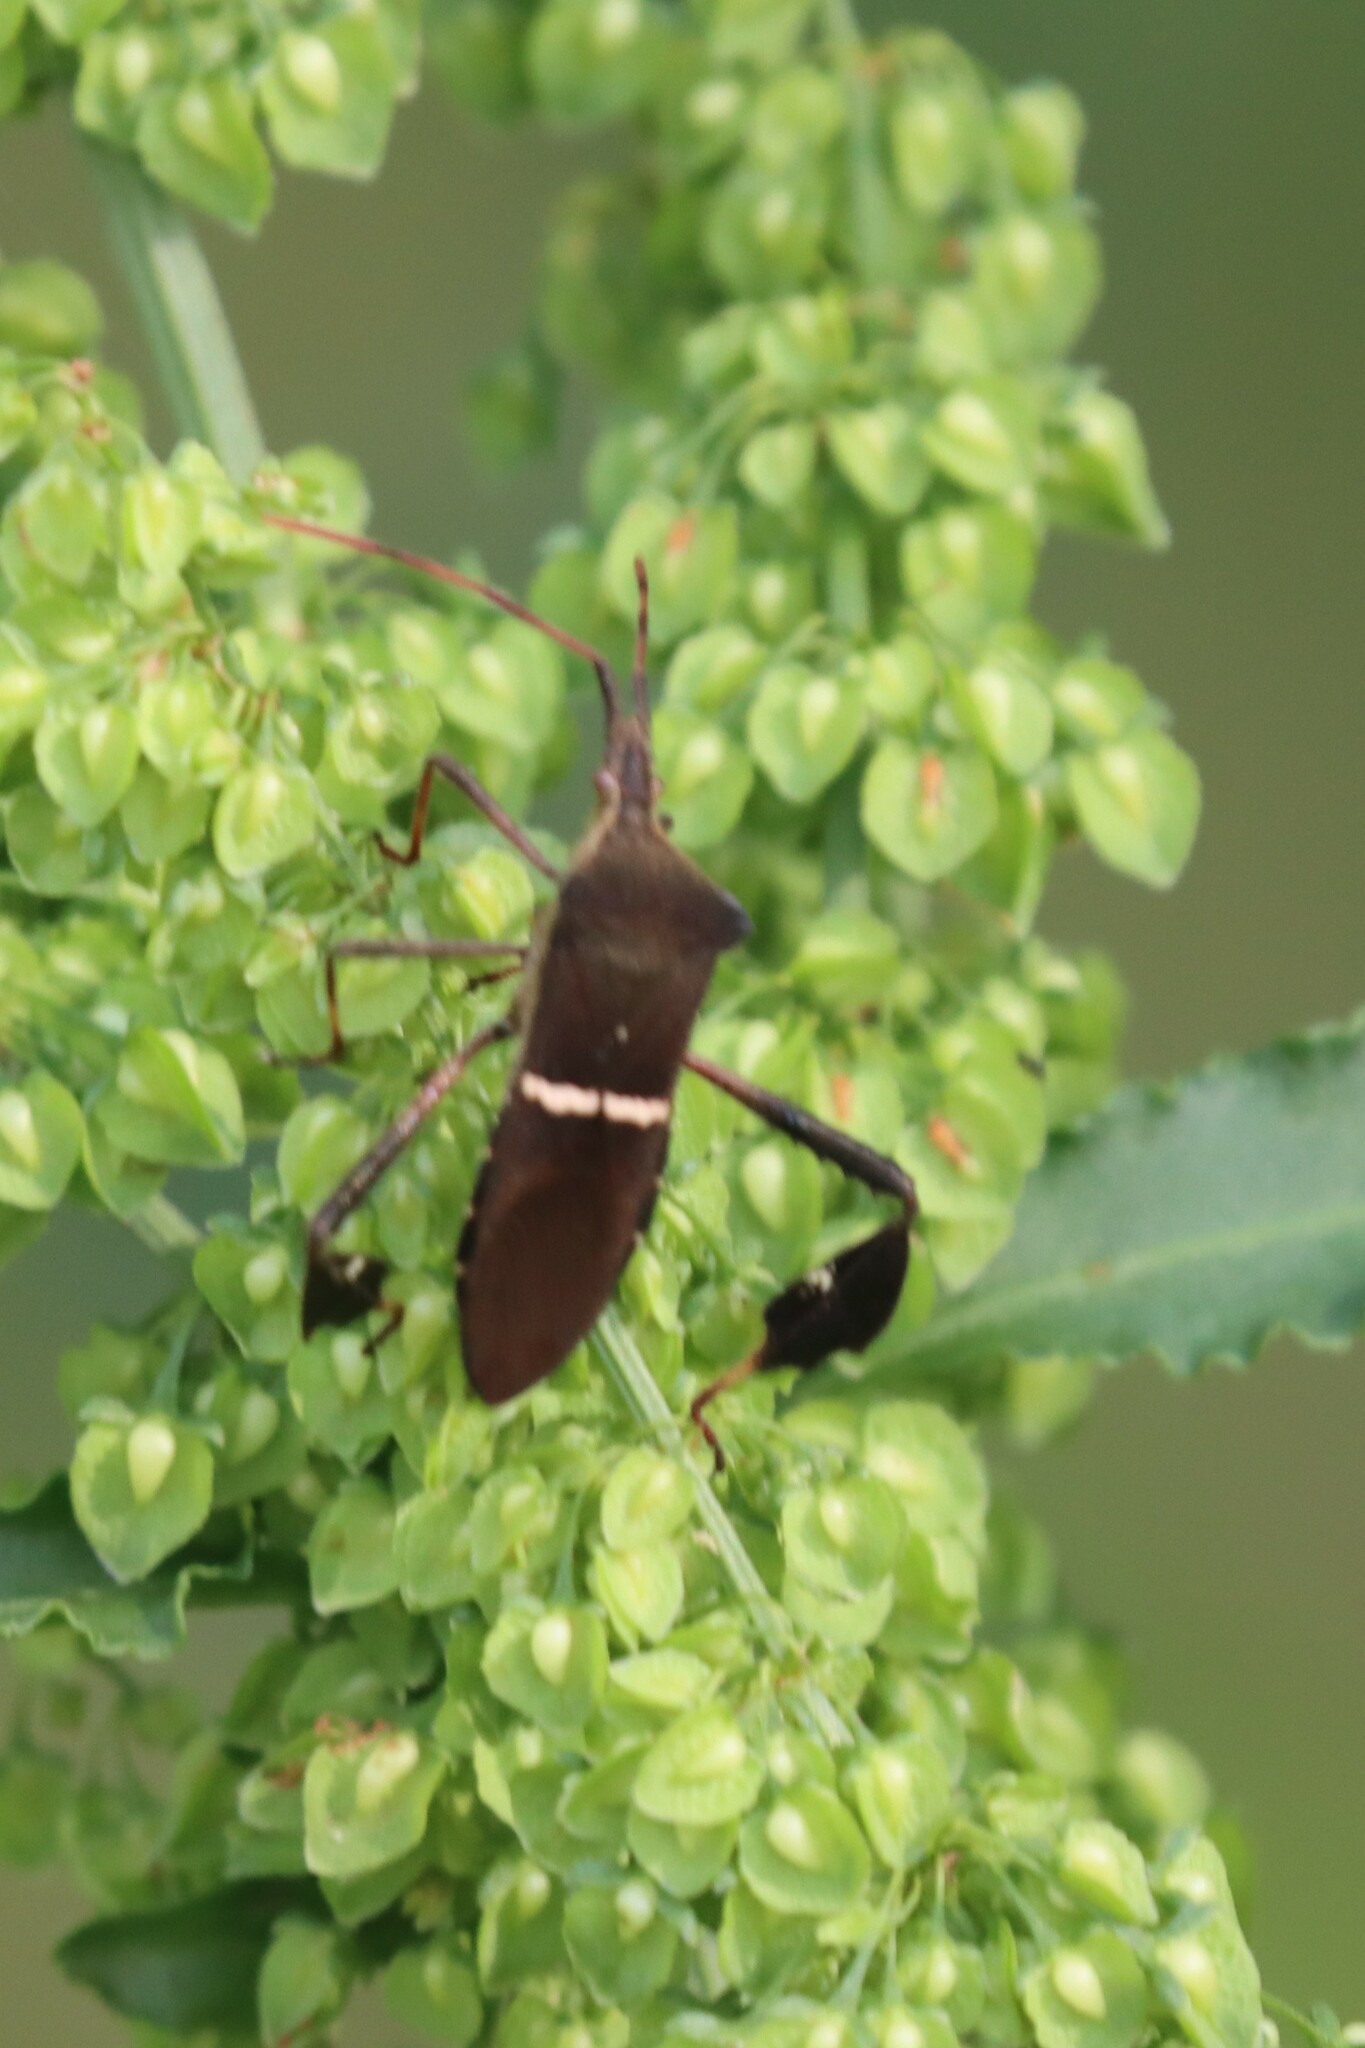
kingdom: Animalia
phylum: Arthropoda
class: Insecta
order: Hemiptera
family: Coreidae
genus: Leptoglossus
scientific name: Leptoglossus phyllopus
